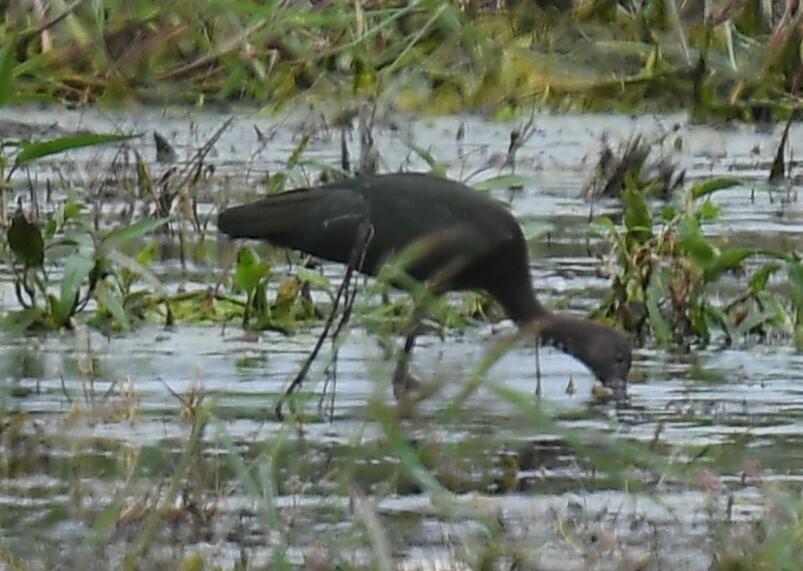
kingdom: Animalia
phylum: Chordata
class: Aves
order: Pelecaniformes
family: Threskiornithidae
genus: Plegadis
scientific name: Plegadis
